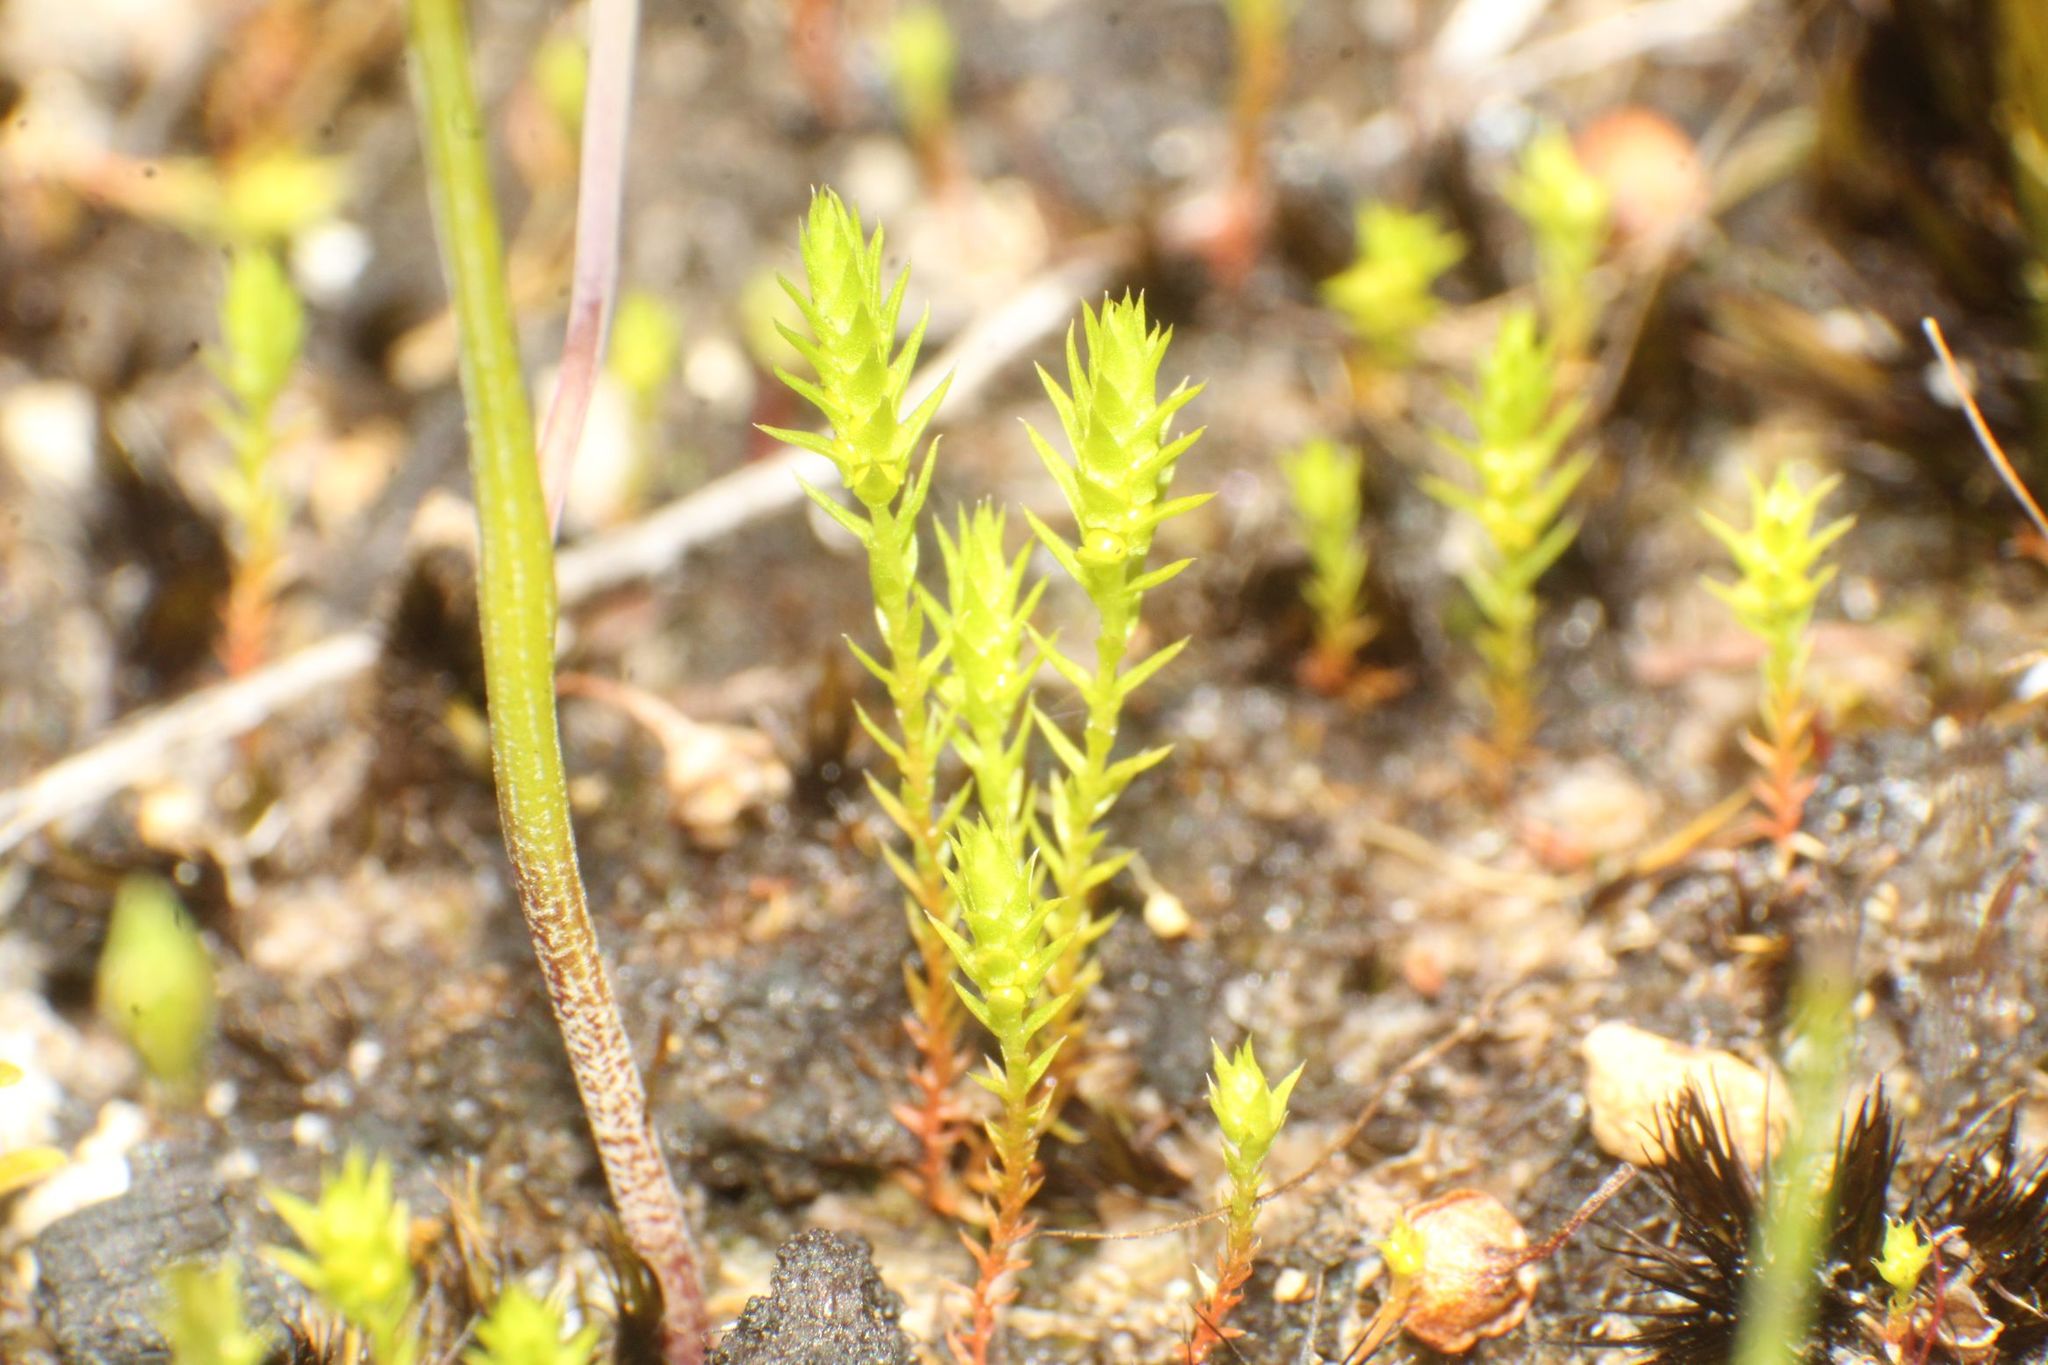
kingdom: Plantae
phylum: Tracheophyta
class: Lycopodiopsida
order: Selaginellales
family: Selaginellaceae
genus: Selaginella
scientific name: Selaginella gracillima
